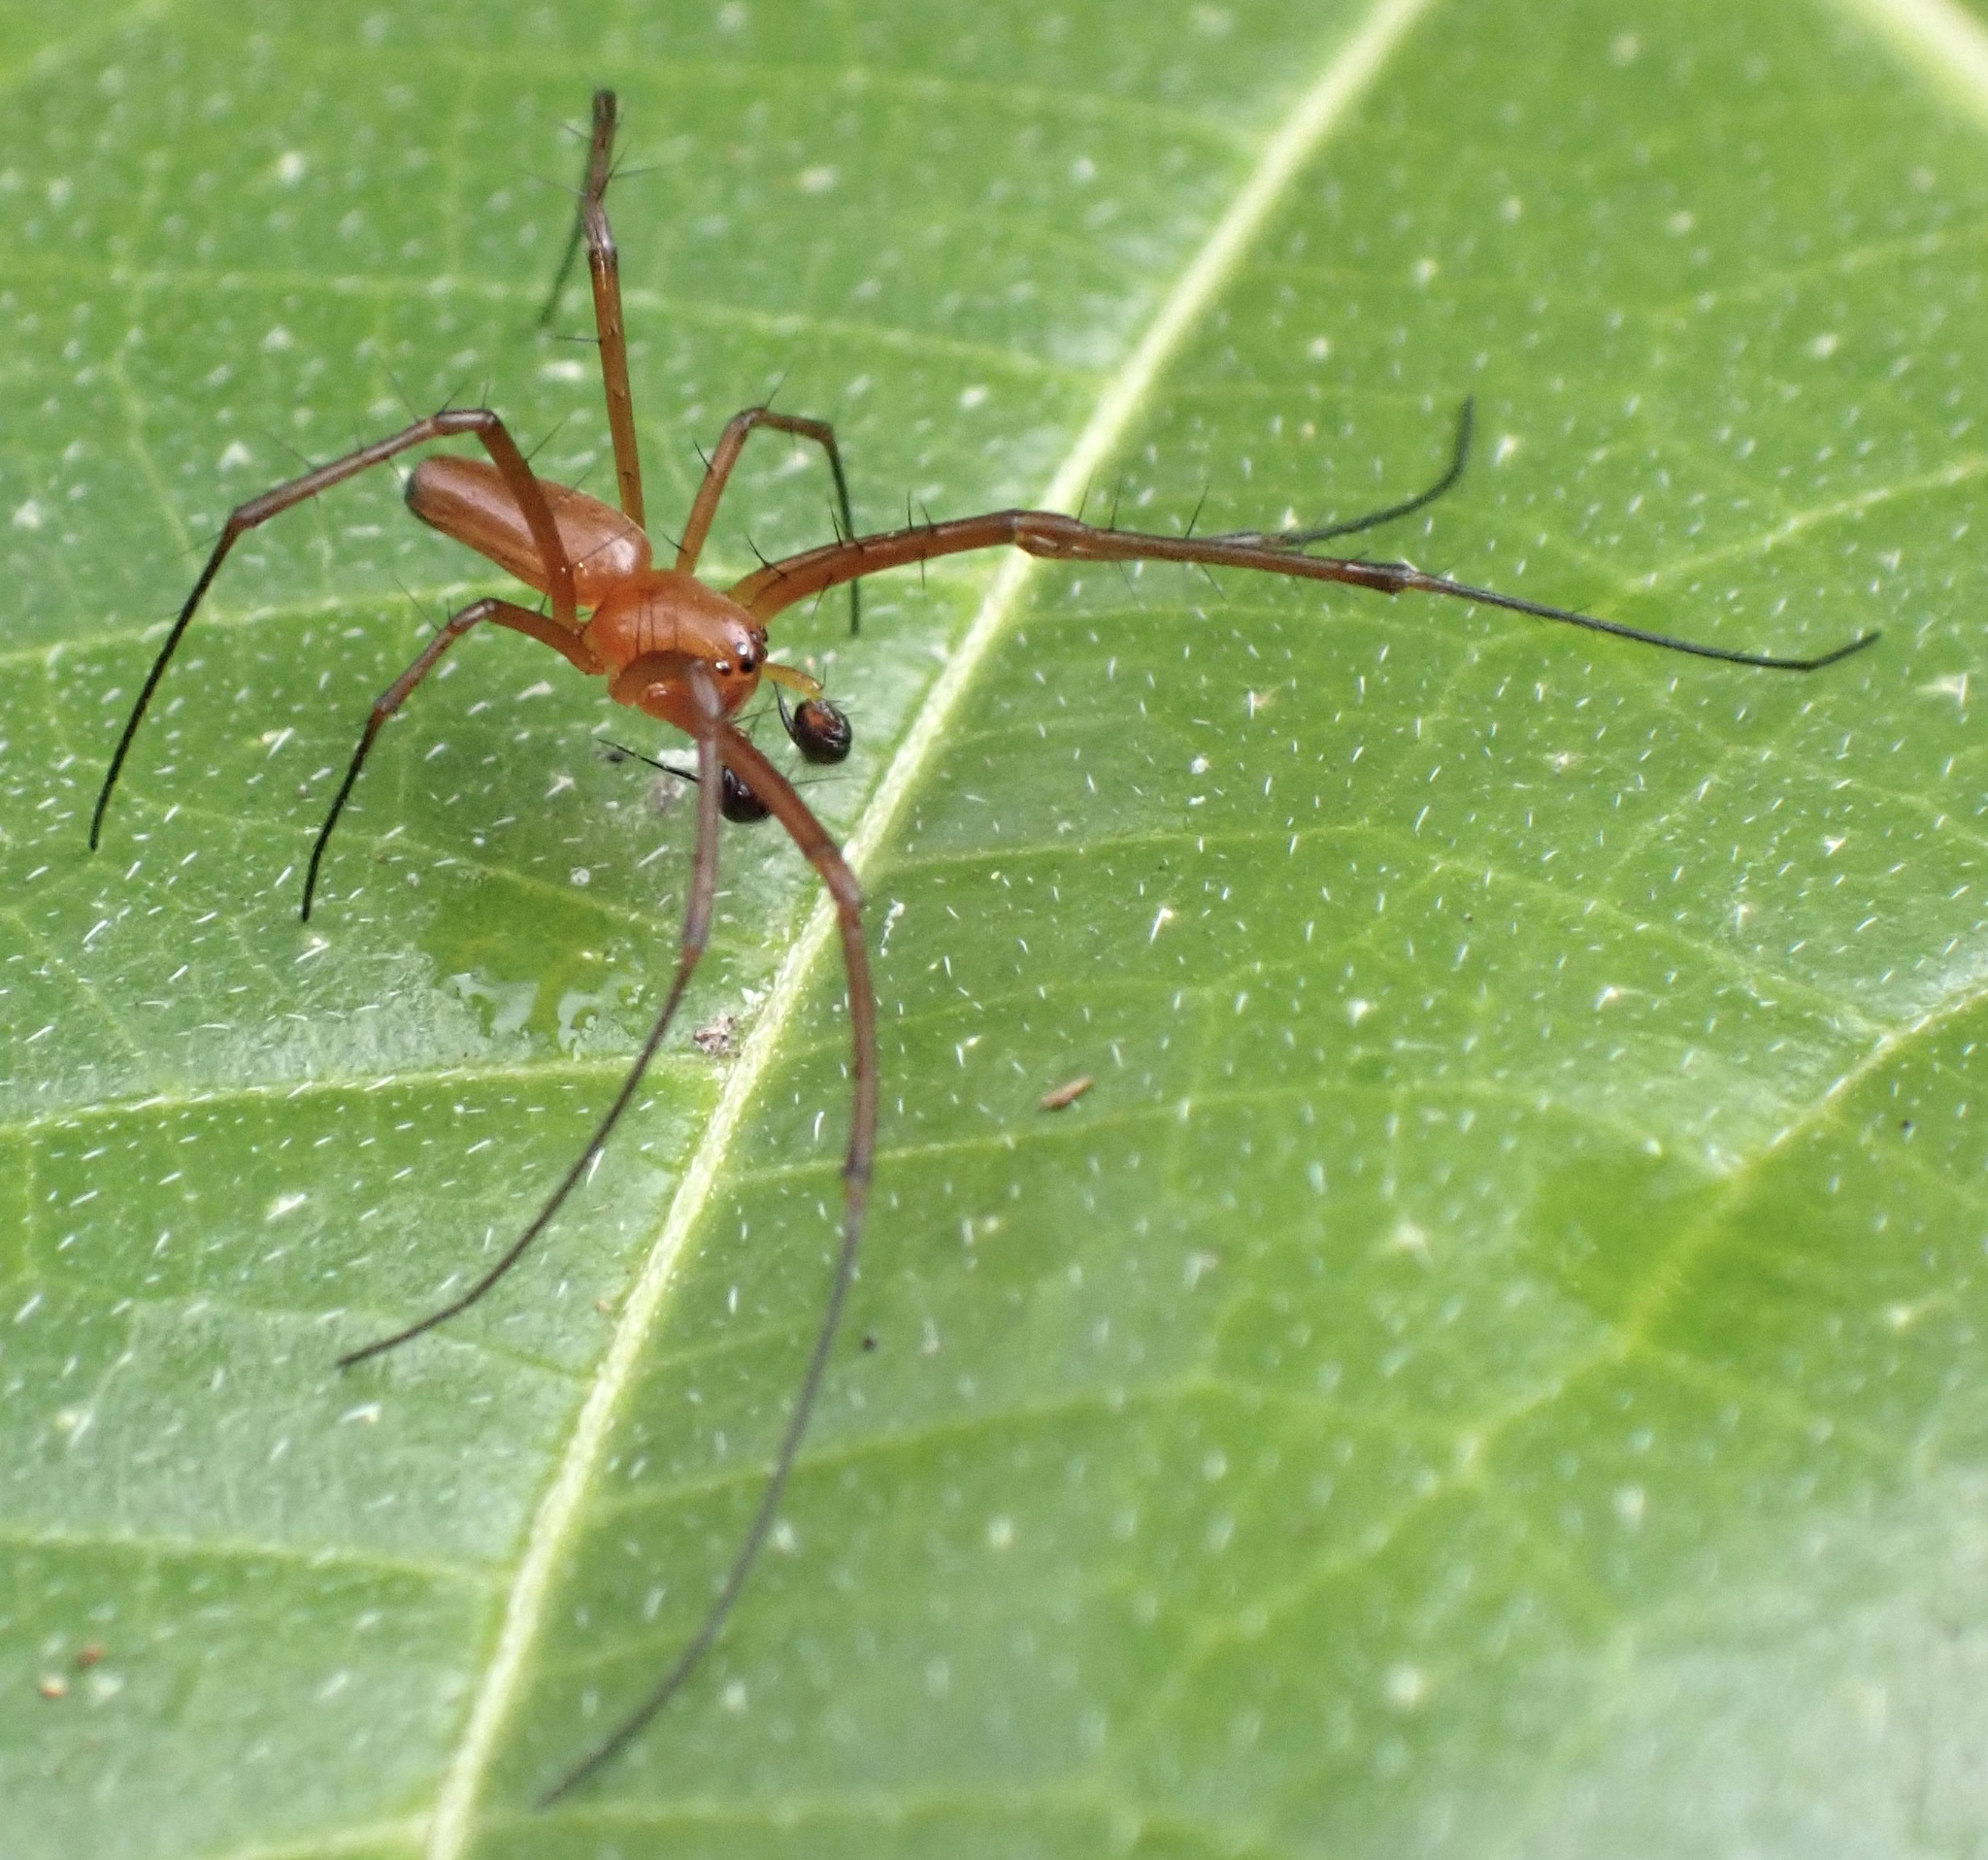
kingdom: Animalia
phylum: Arthropoda
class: Arachnida
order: Araneae
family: Araneidae
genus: Nephila
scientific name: Nephila pilipes
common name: Giant golden orb weaver
